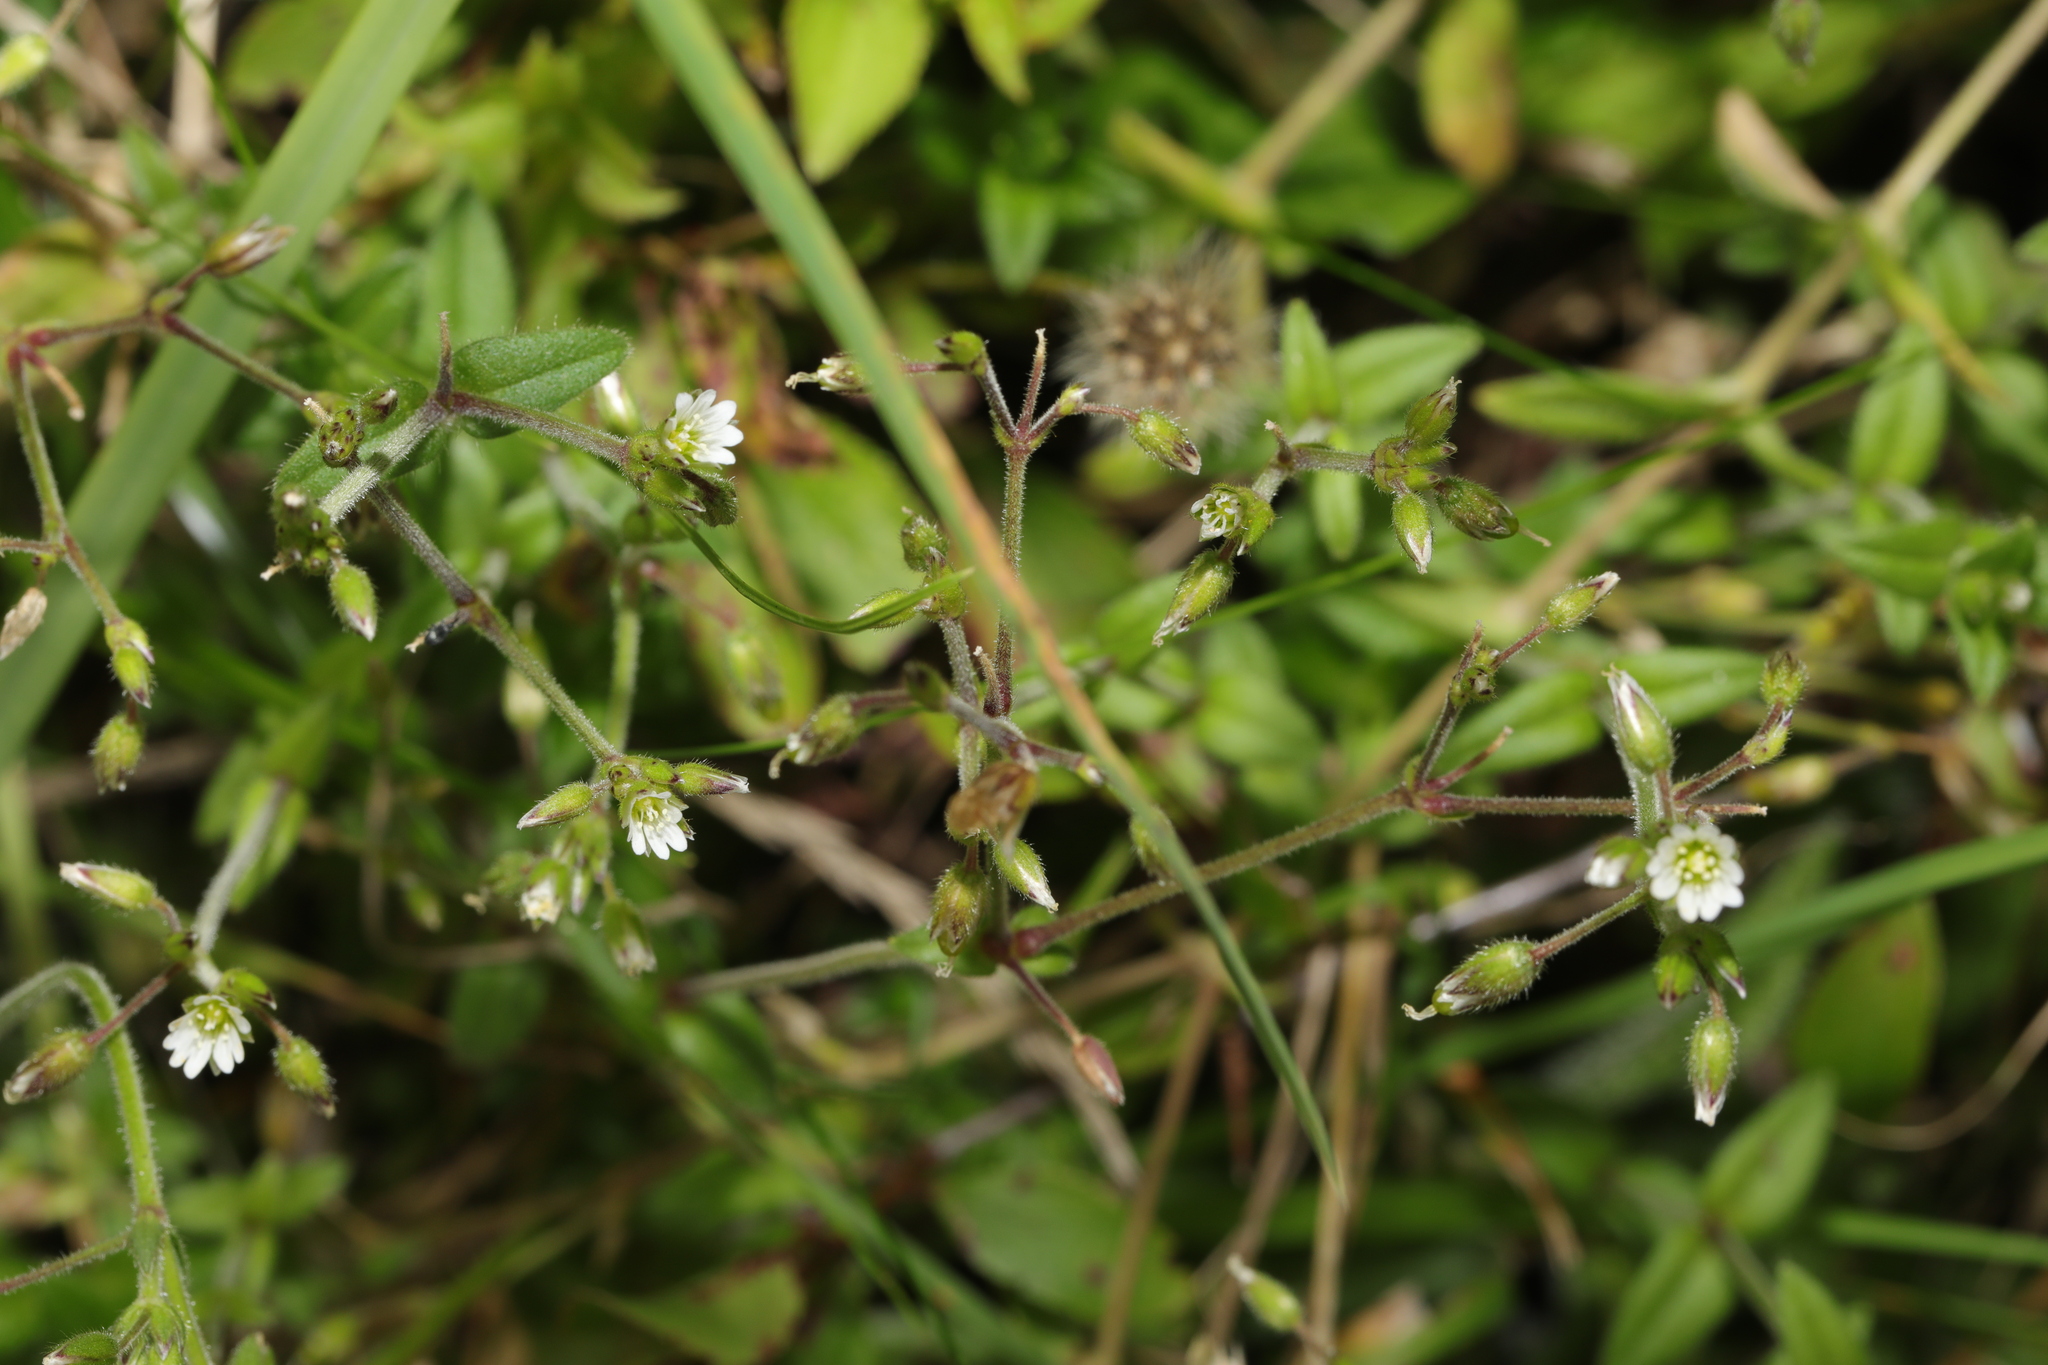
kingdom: Plantae
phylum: Tracheophyta
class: Magnoliopsida
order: Caryophyllales
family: Caryophyllaceae
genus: Cerastium
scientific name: Cerastium fontanum
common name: Common mouse-ear
